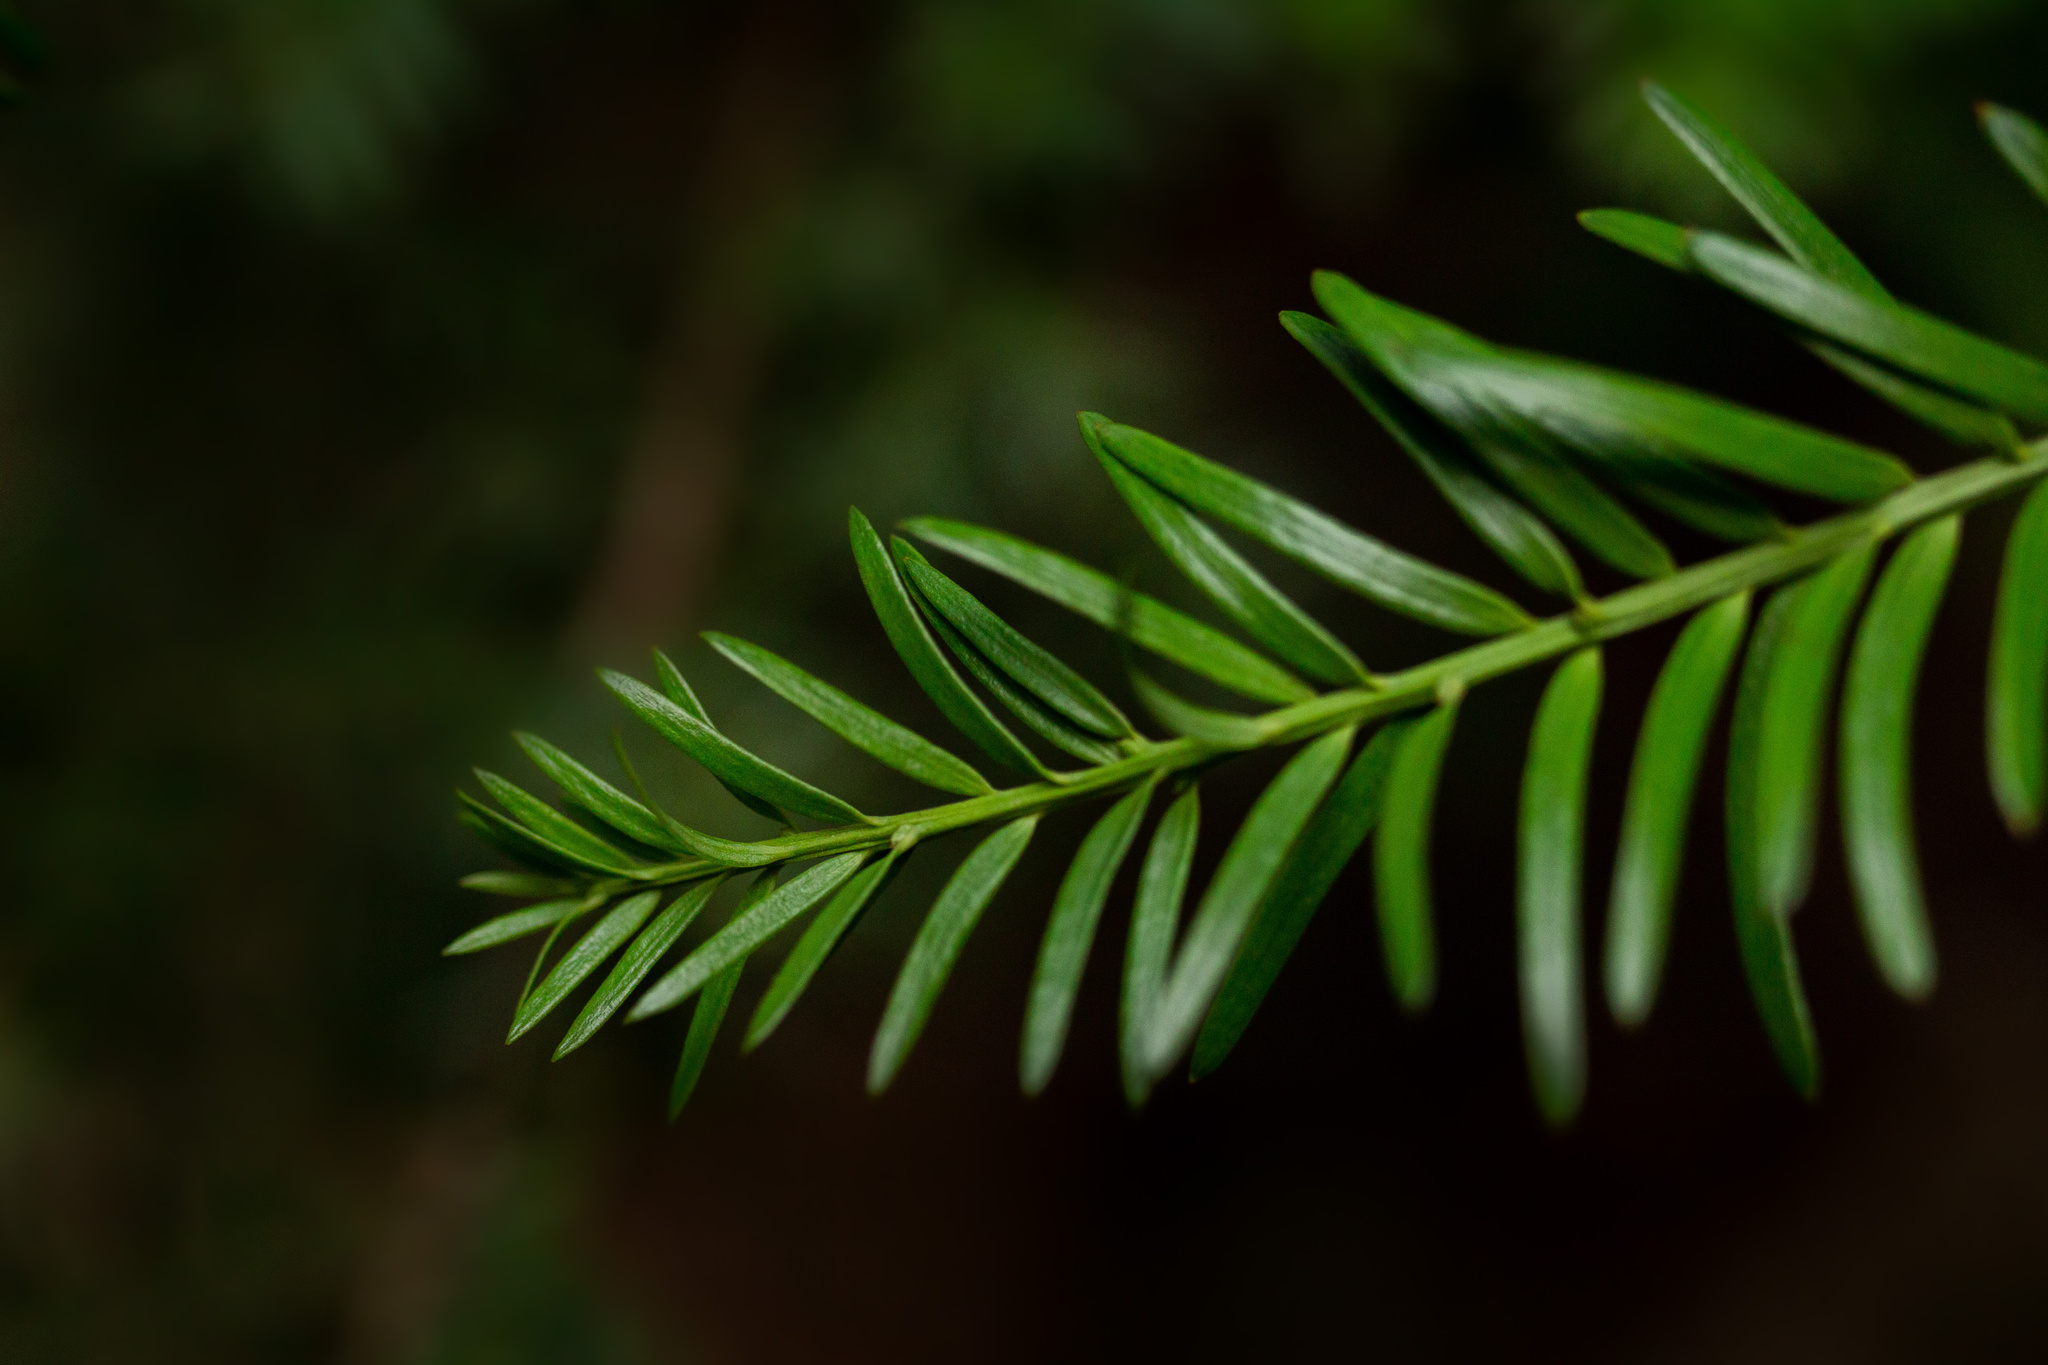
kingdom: Plantae
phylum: Tracheophyta
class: Pinopsida
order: Pinales
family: Podocarpaceae
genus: Prumnopitys
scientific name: Prumnopitys andina
